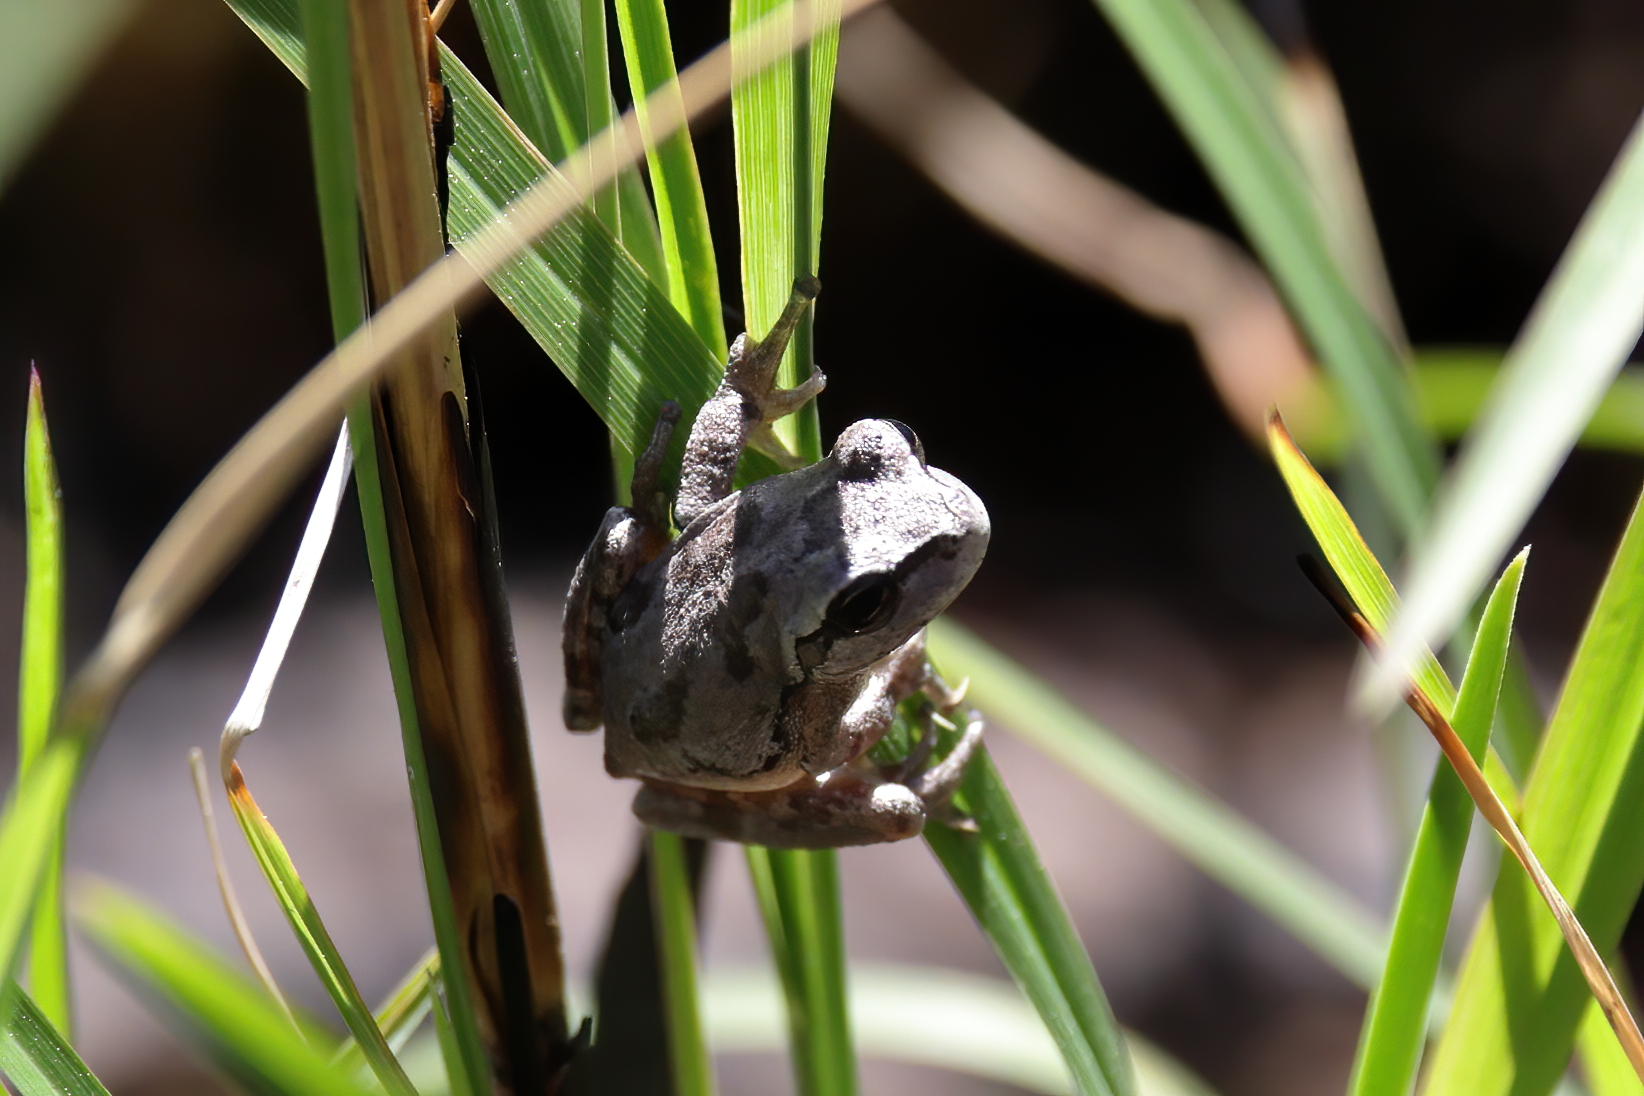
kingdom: Animalia
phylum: Chordata
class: Amphibia
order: Anura
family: Hylidae
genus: Hyla
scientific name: Hyla femoralis
